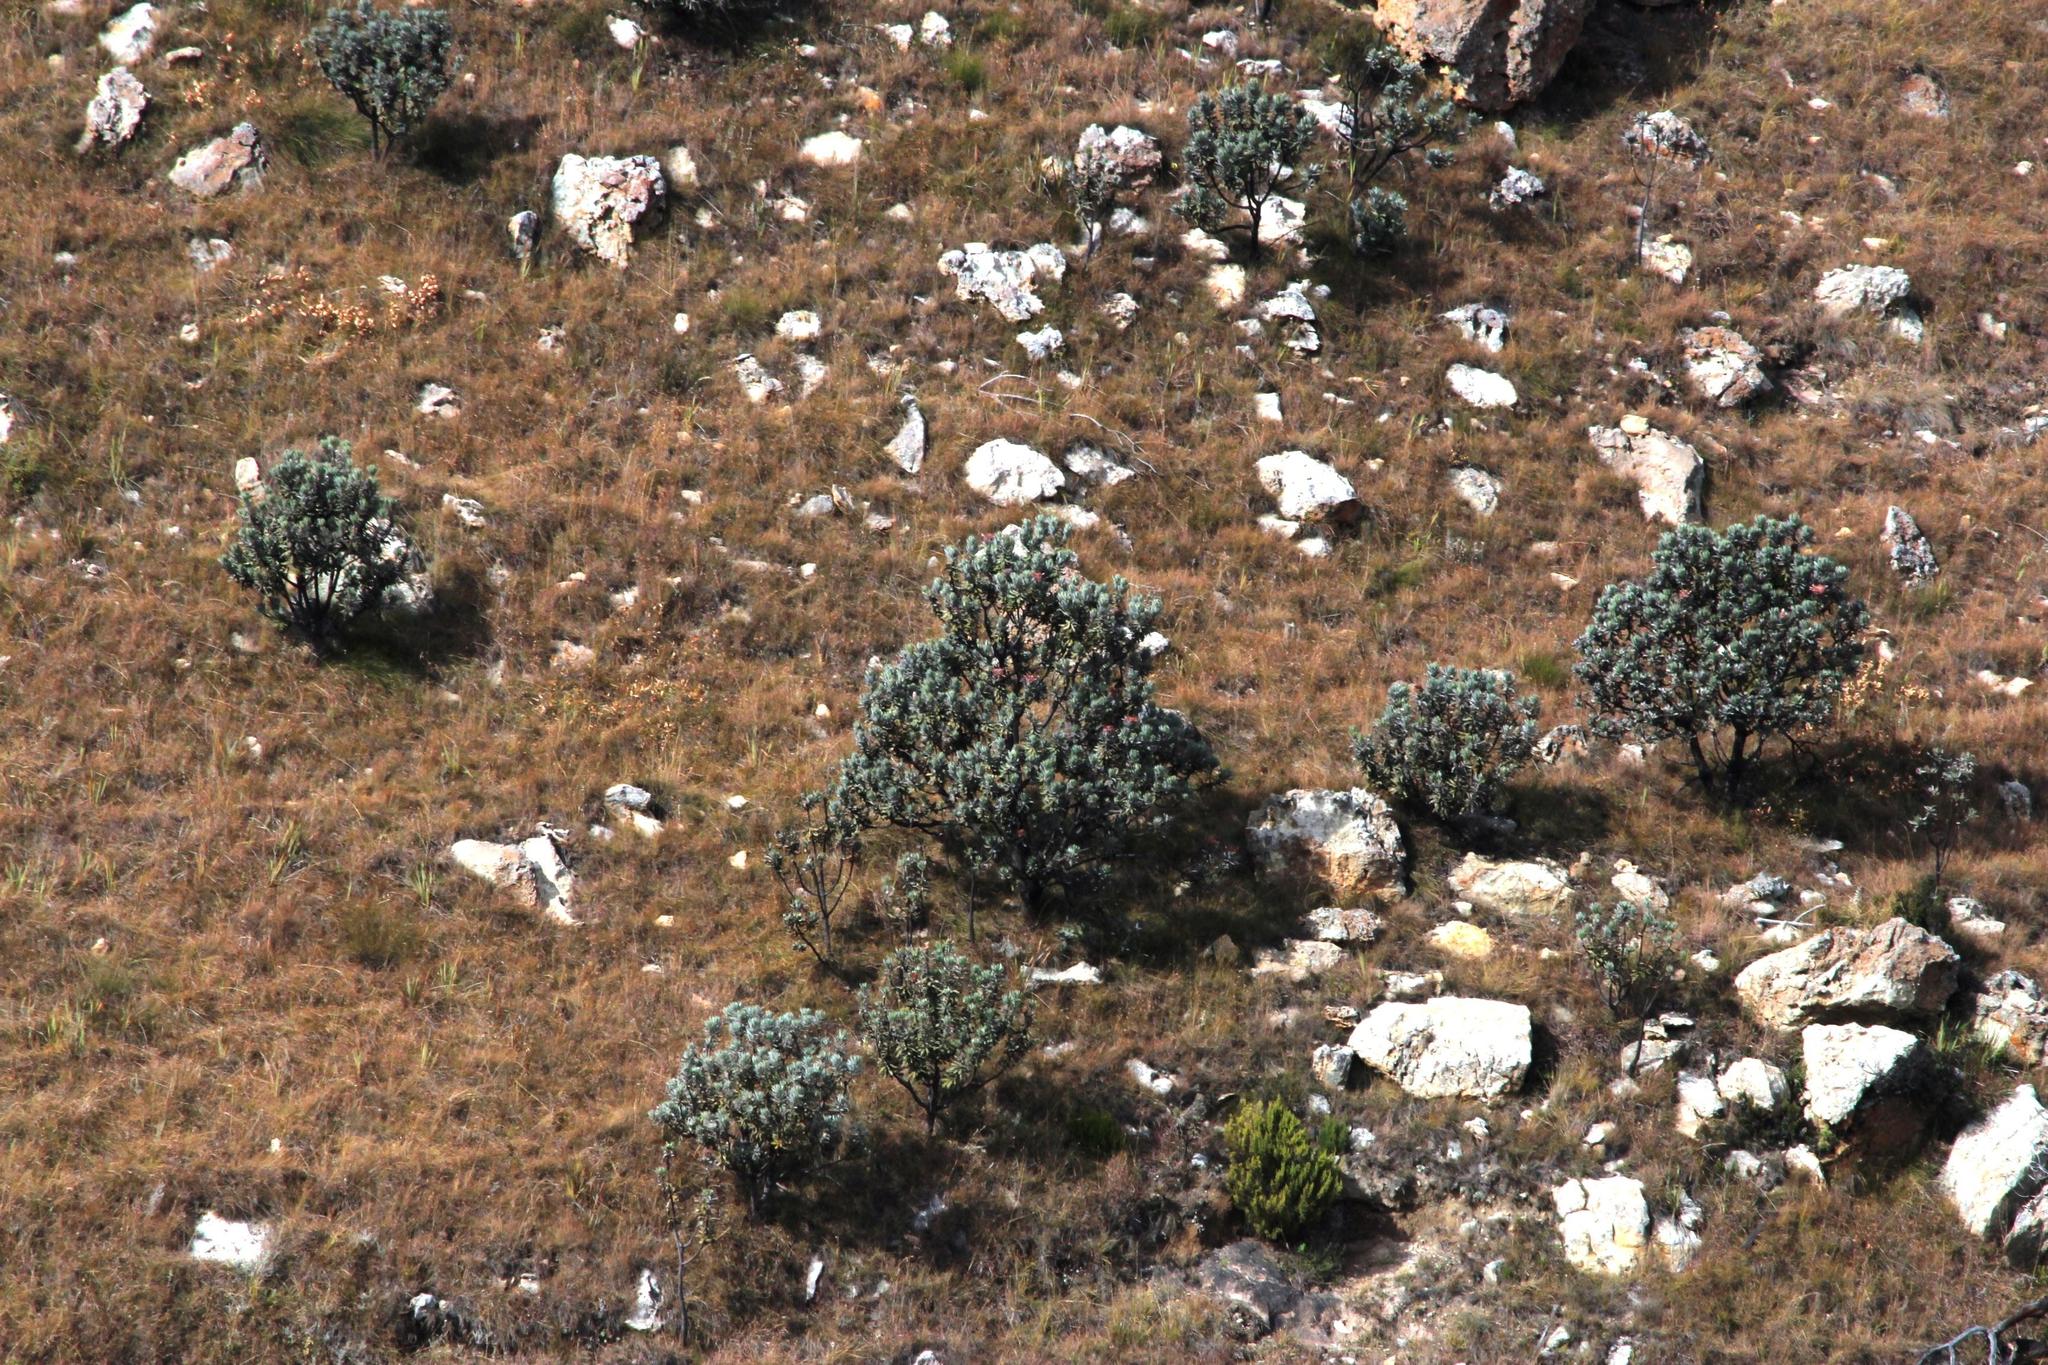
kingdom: Plantae
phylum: Tracheophyta
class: Magnoliopsida
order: Proteales
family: Proteaceae
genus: Protea
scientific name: Protea roupelliae
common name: Silver sugarbush
